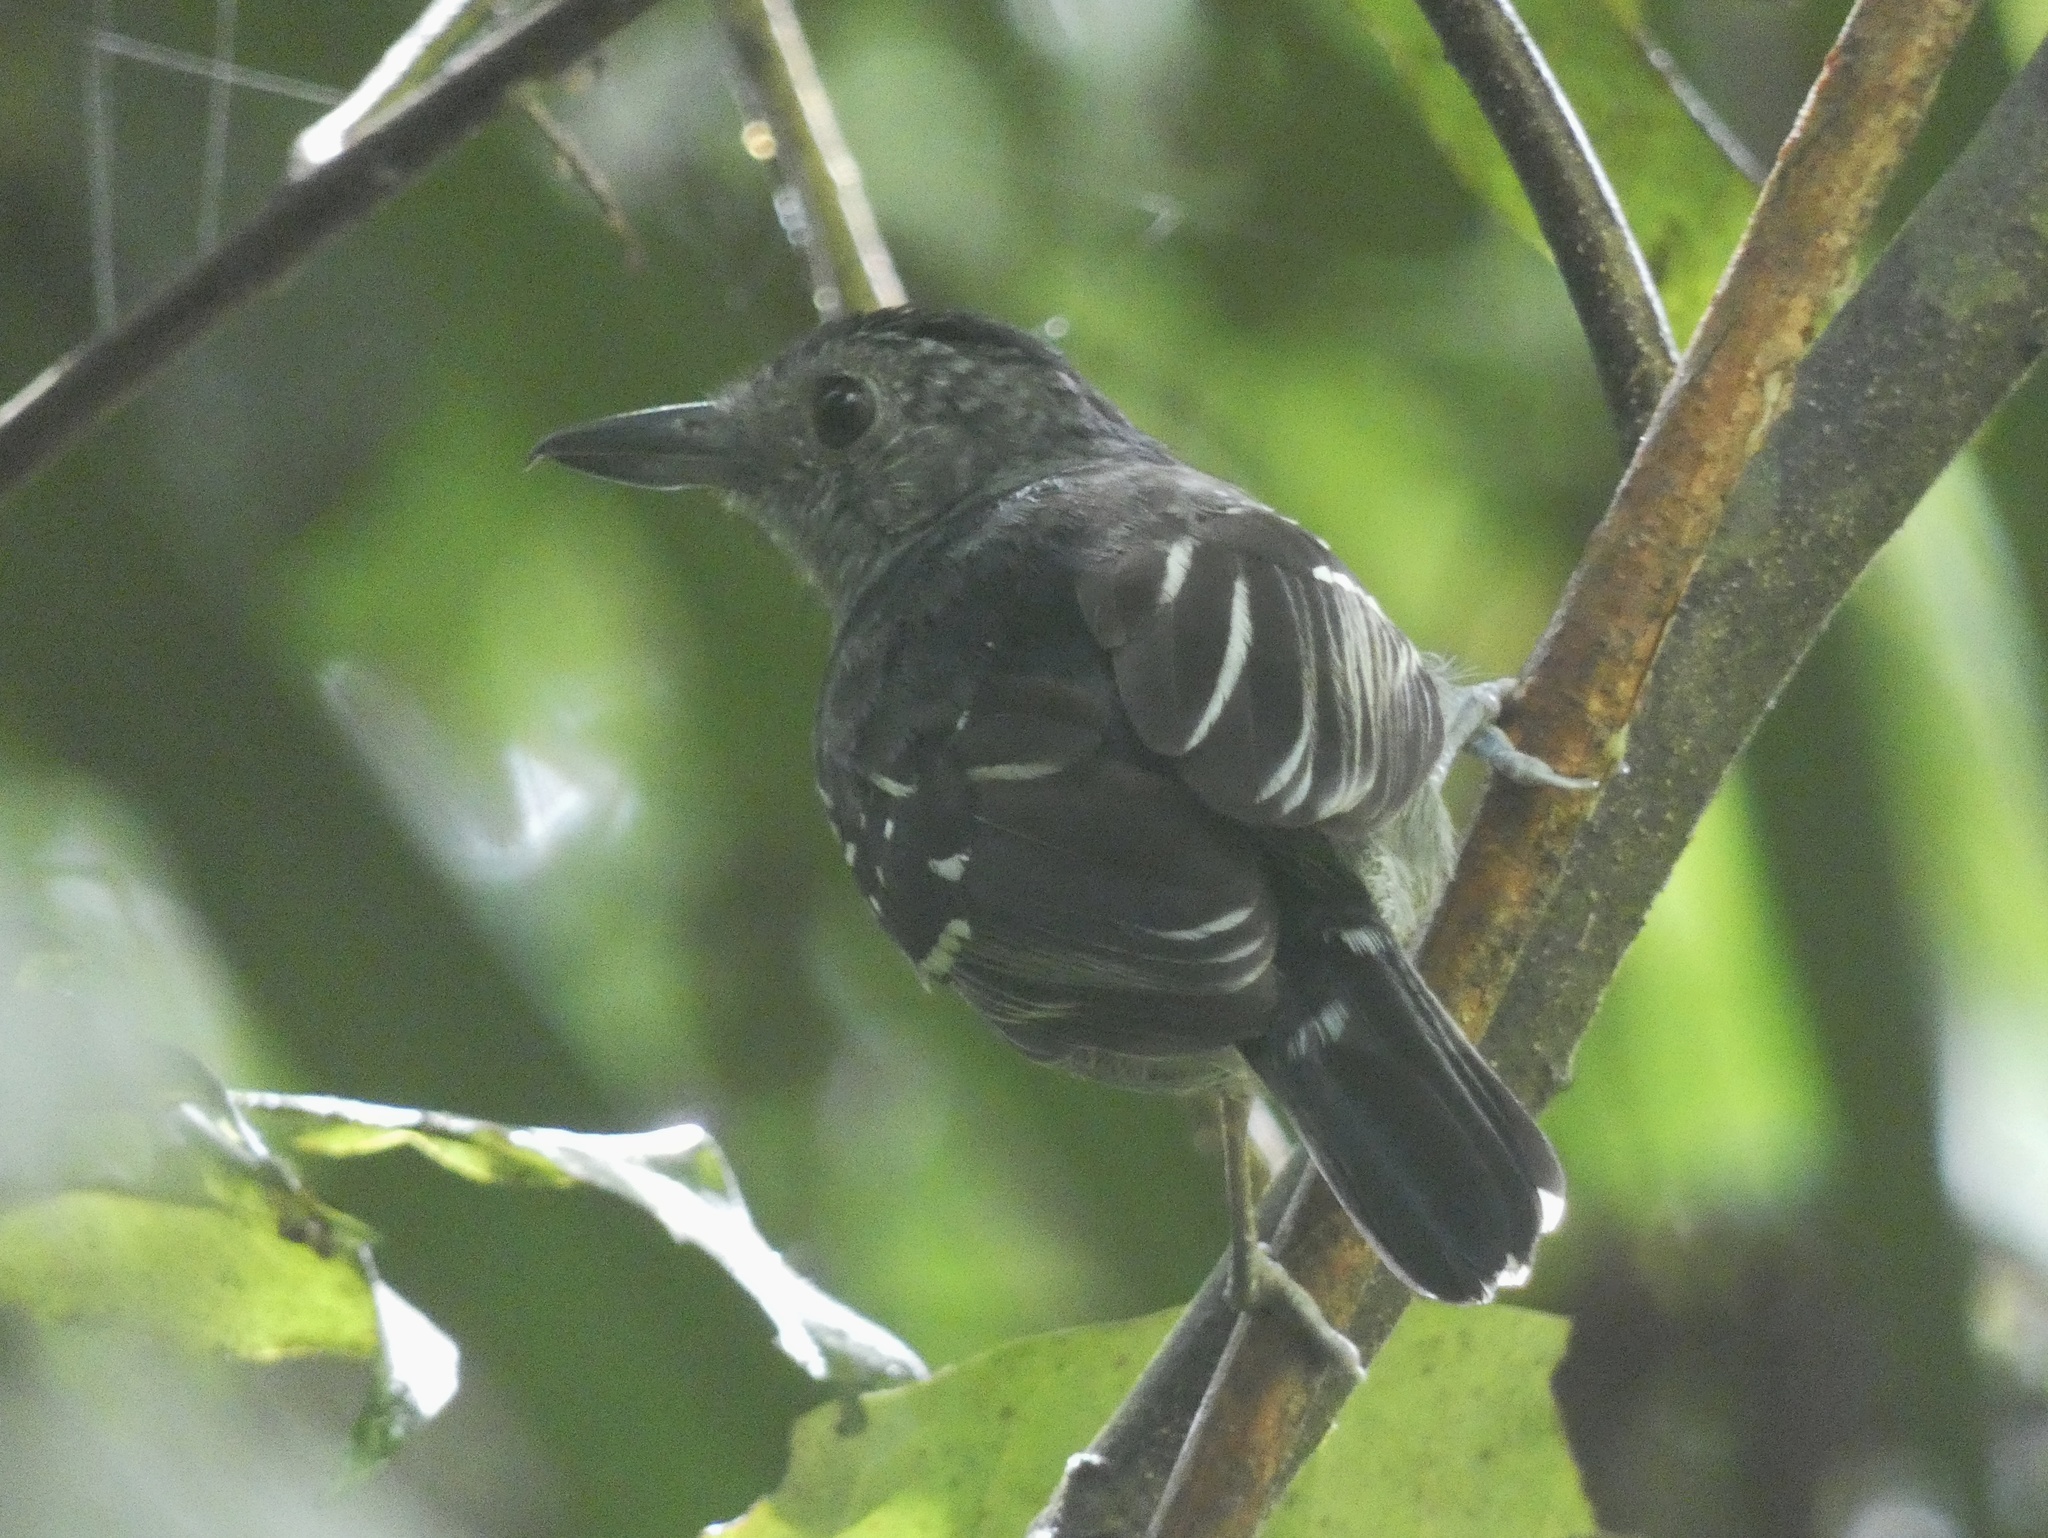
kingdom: Animalia
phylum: Chordata
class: Aves
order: Passeriformes
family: Thamnophilidae
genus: Thamnophilus
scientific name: Thamnophilus atrinucha
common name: Black-crowned antshrike
